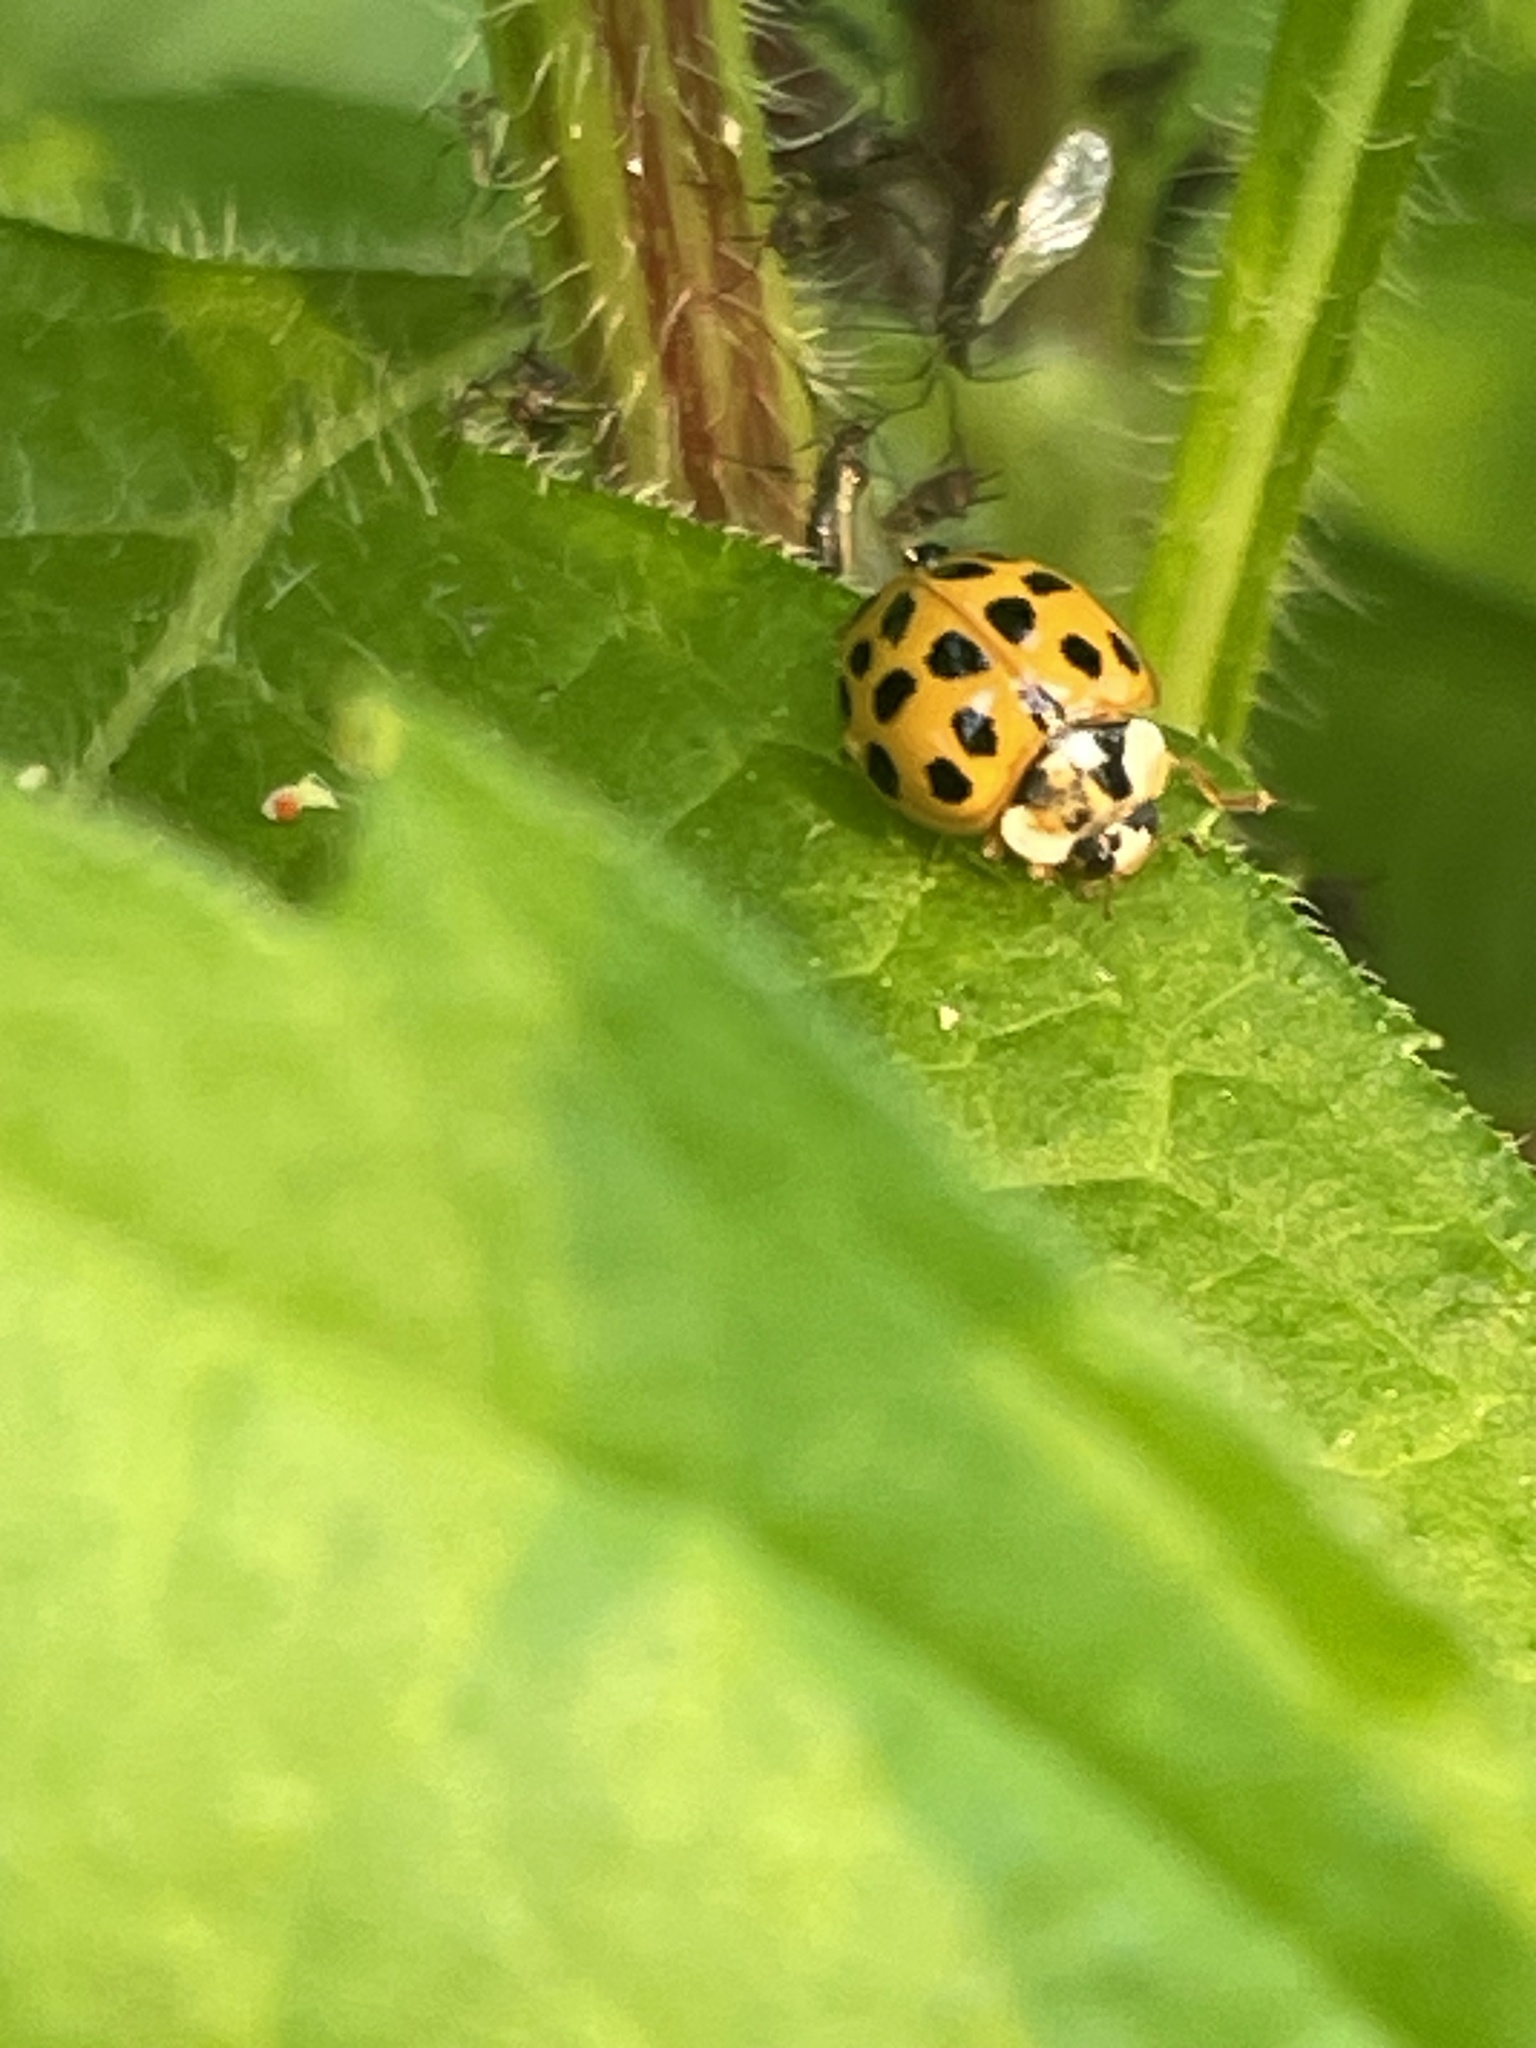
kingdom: Animalia
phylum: Arthropoda
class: Insecta
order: Coleoptera
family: Coccinellidae
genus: Harmonia
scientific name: Harmonia axyridis
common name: Harlequin ladybird
